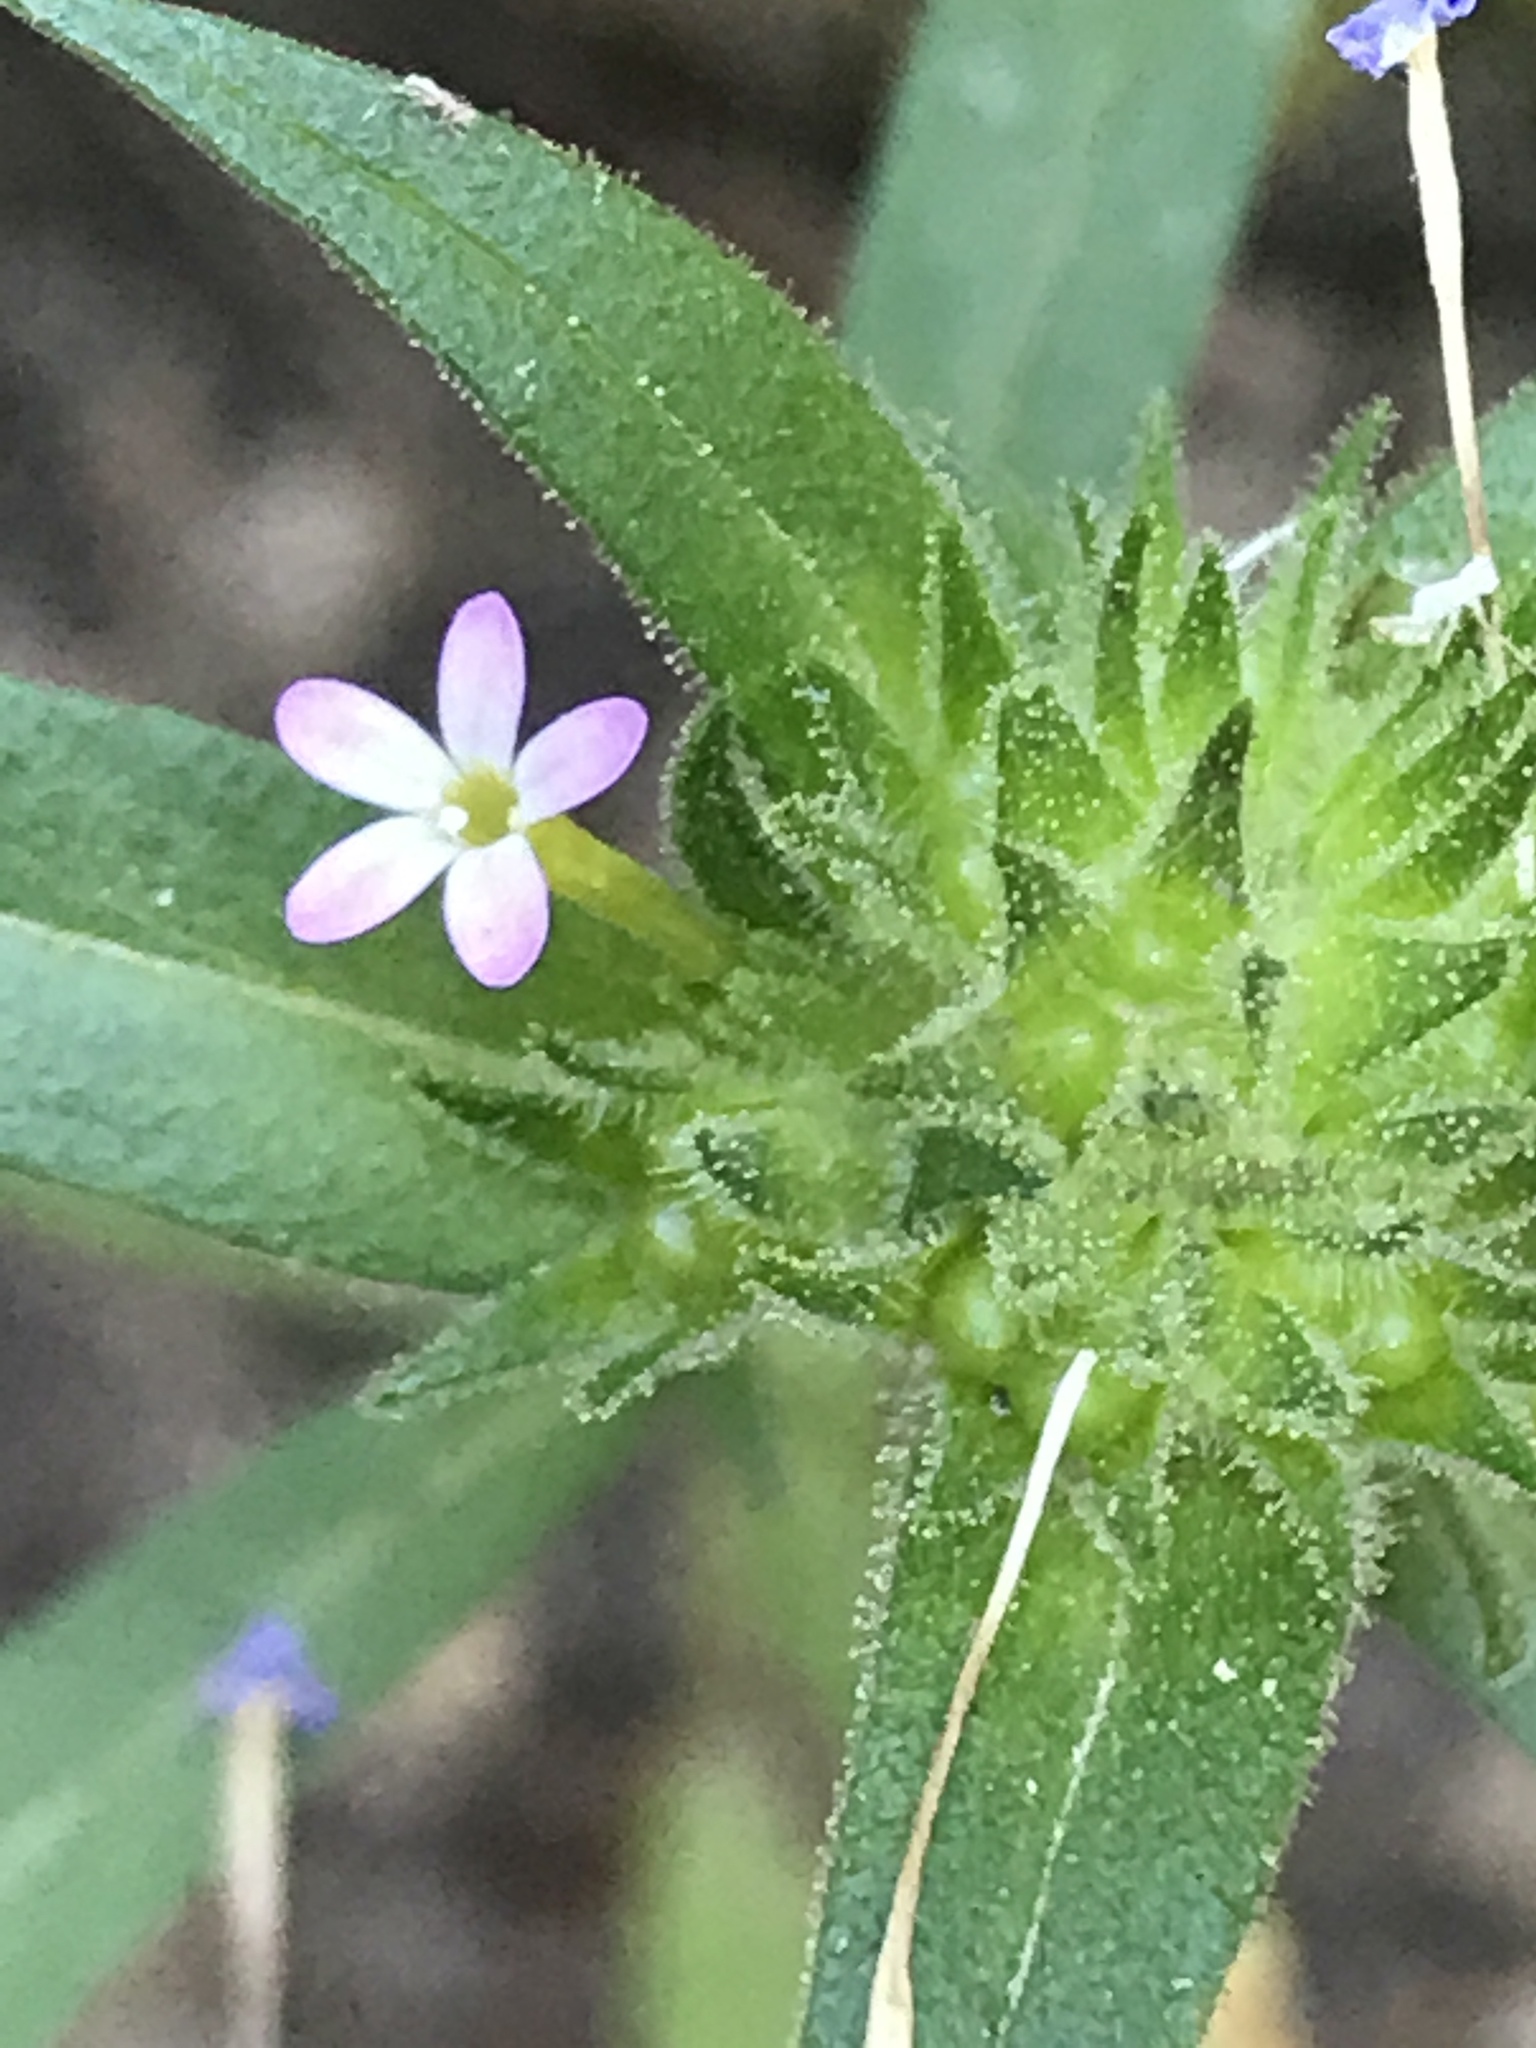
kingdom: Plantae
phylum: Tracheophyta
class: Magnoliopsida
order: Ericales
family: Polemoniaceae
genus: Collomia
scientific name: Collomia linearis
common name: Tiny trumpet
